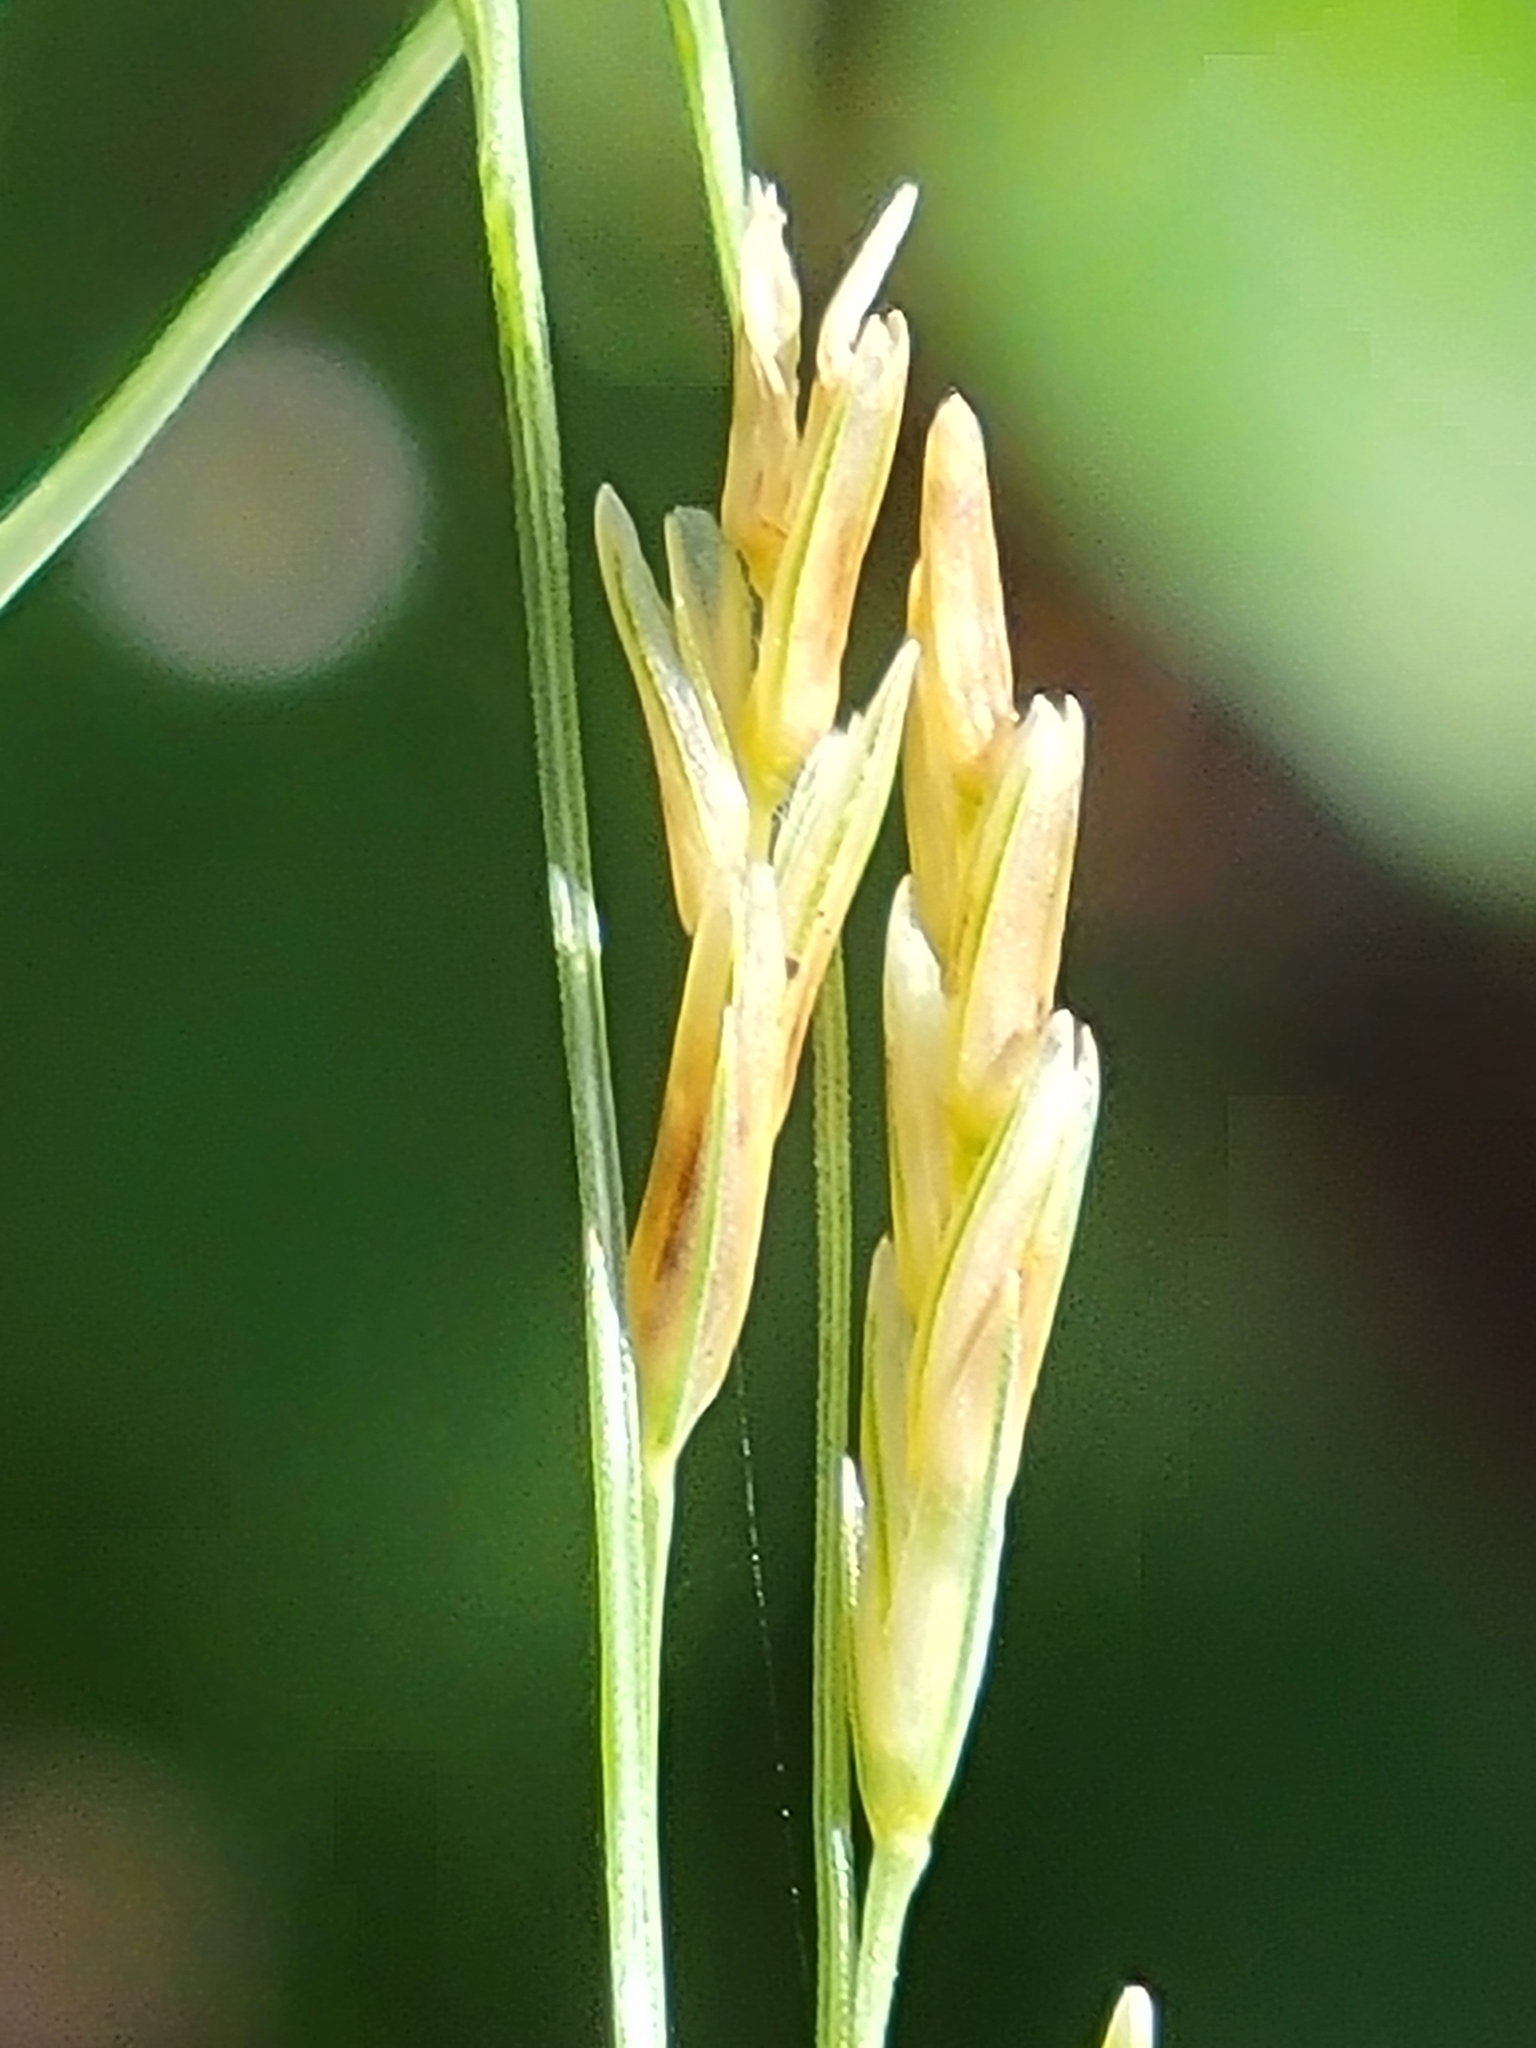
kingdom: Plantae
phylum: Tracheophyta
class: Liliopsida
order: Poales
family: Poaceae
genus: Disakisperma
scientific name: Disakisperma dubium
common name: Green sprangletop
